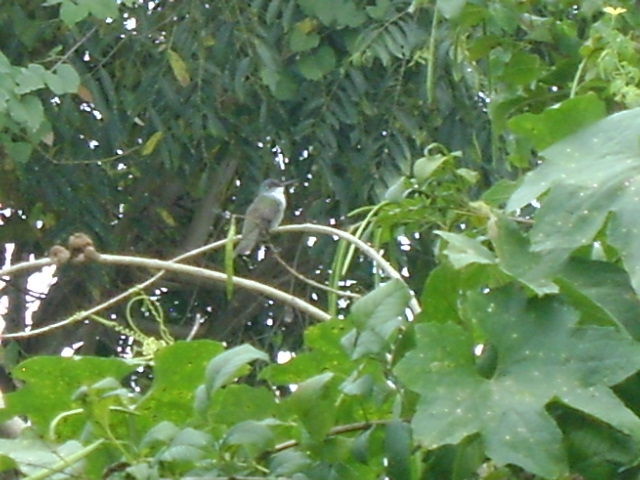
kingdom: Animalia
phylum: Chordata
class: Aves
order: Apodiformes
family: Trochilidae
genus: Saucerottia
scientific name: Saucerottia cyanocephala
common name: Azure-crowned hummingbird
